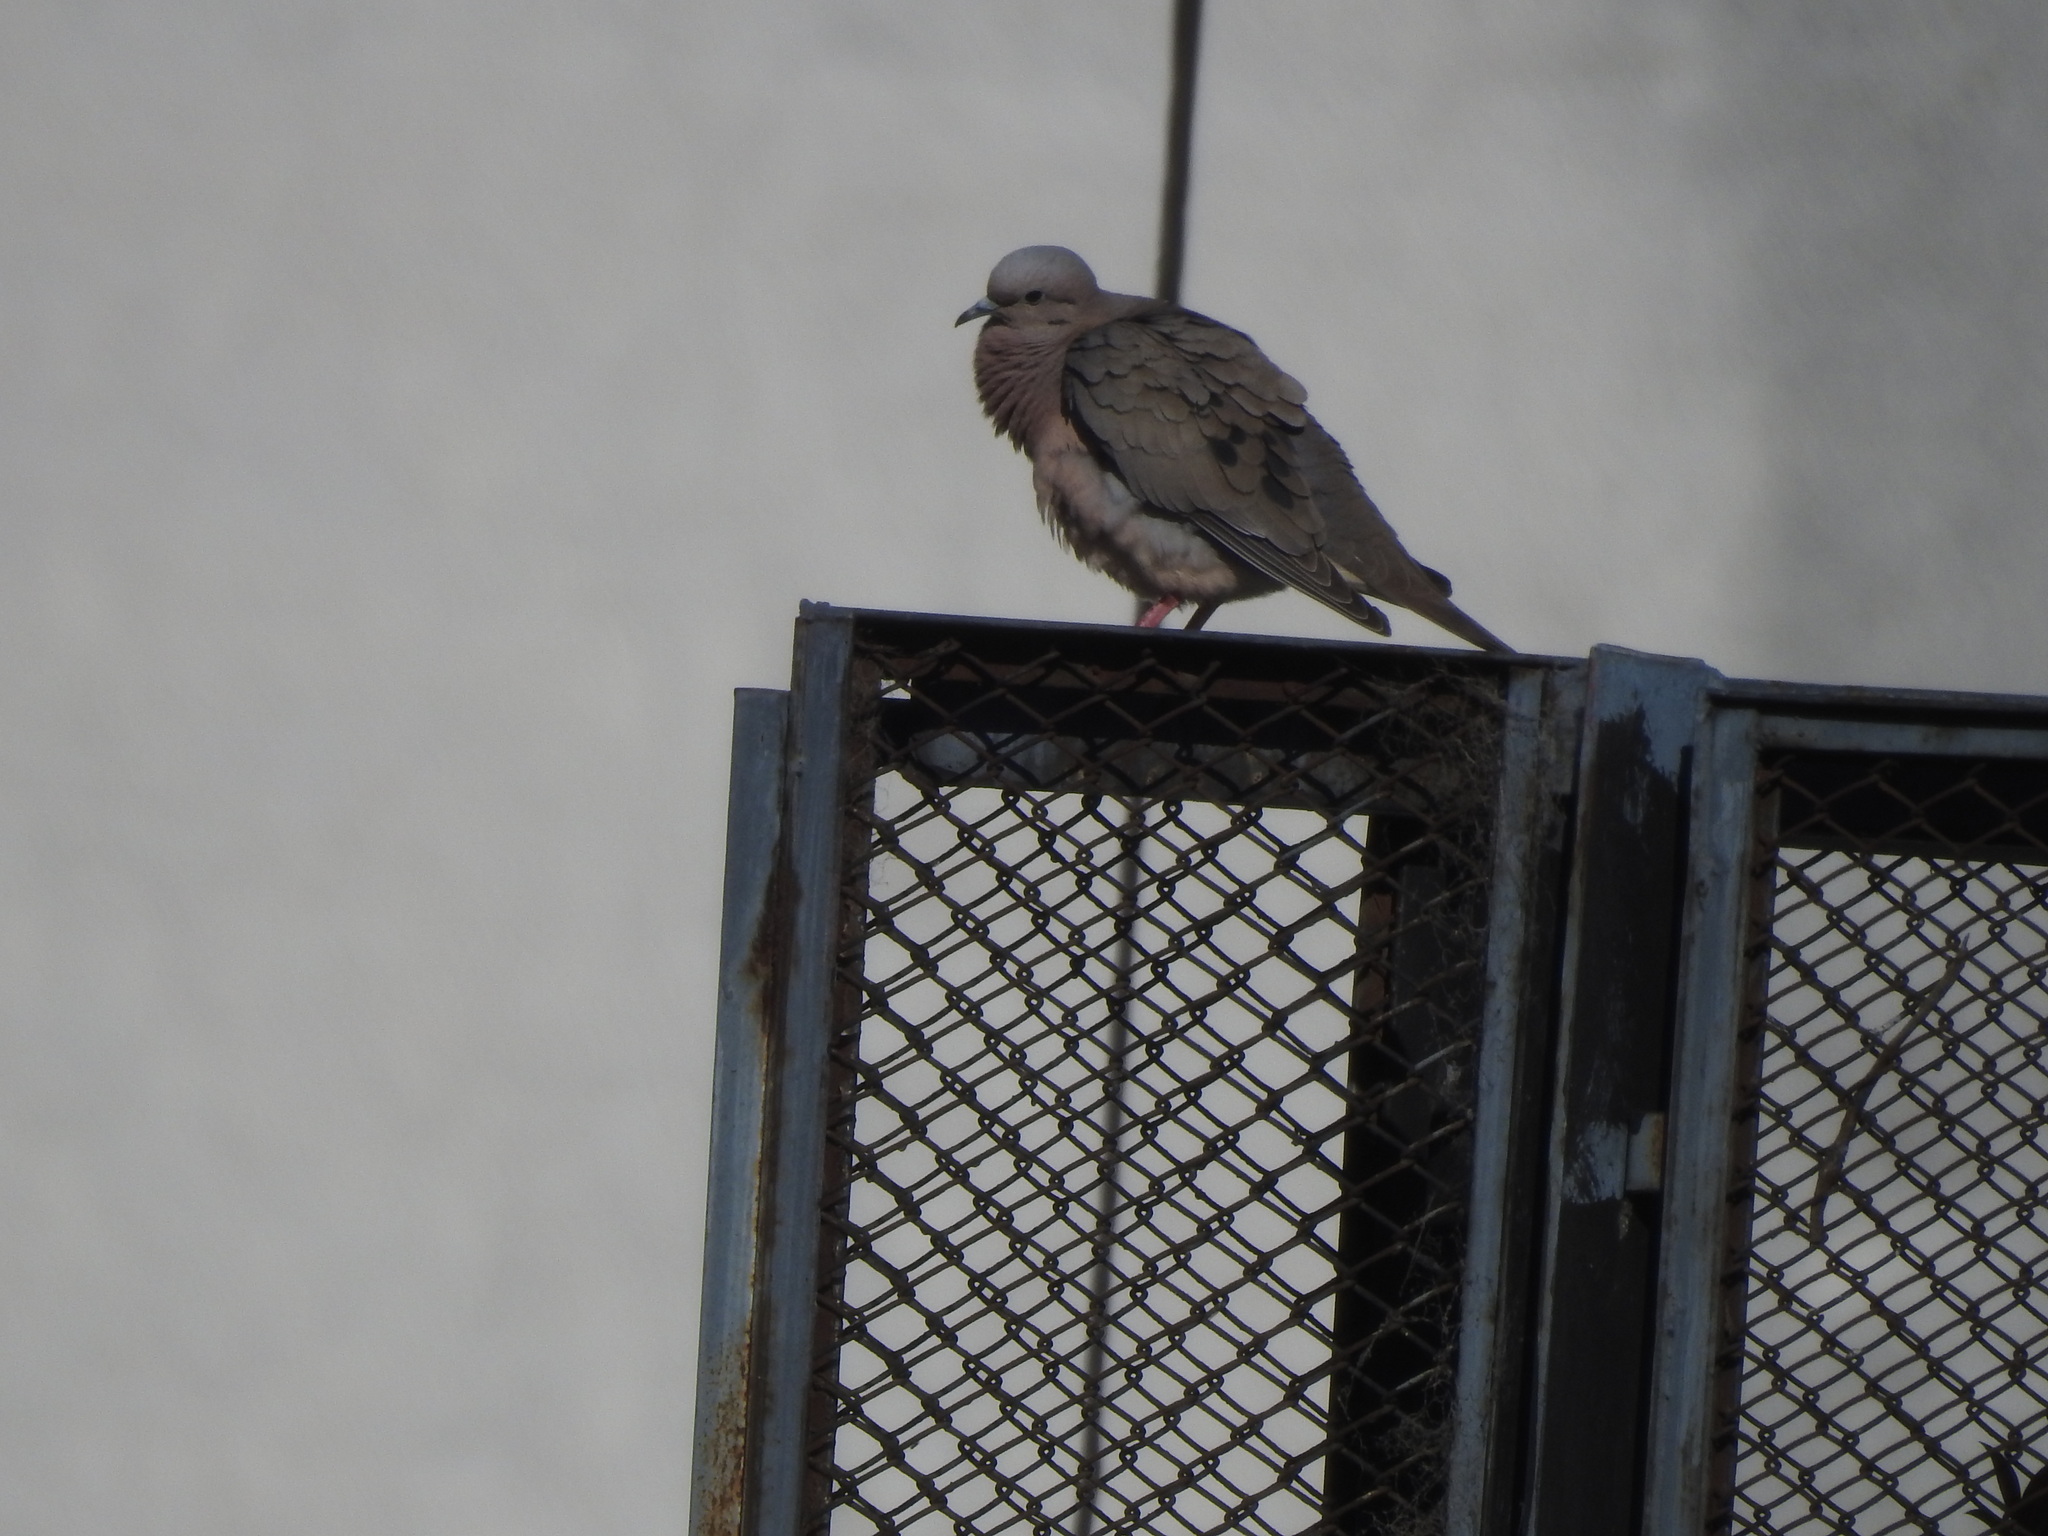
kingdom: Animalia
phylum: Chordata
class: Aves
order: Columbiformes
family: Columbidae
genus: Zenaida
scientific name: Zenaida auriculata
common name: Eared dove
